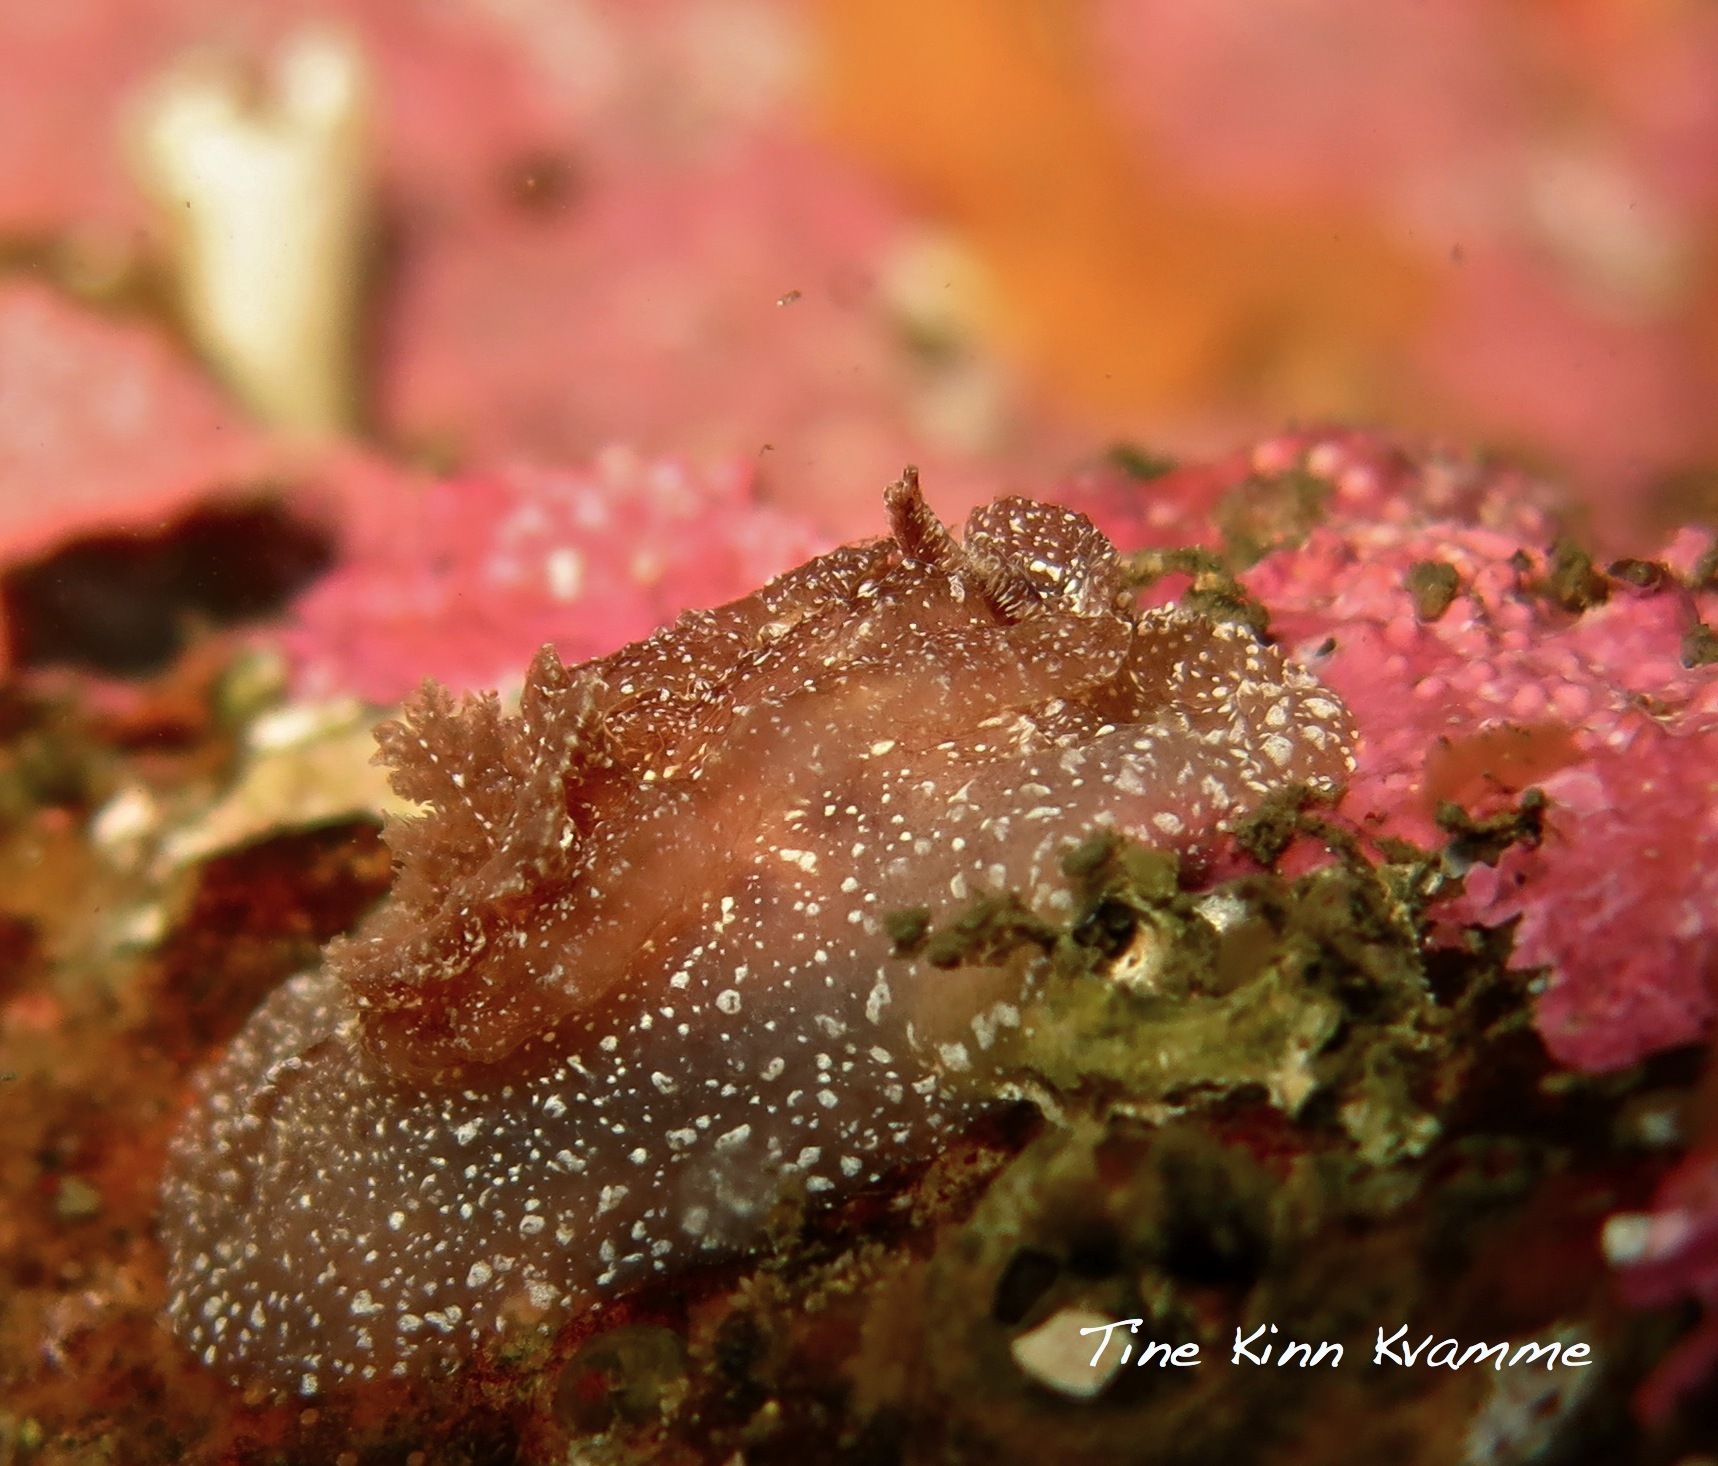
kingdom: Animalia
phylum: Mollusca
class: Gastropoda
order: Nudibranchia
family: Goniodorididae
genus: Pelagella
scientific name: Pelagella castanea
